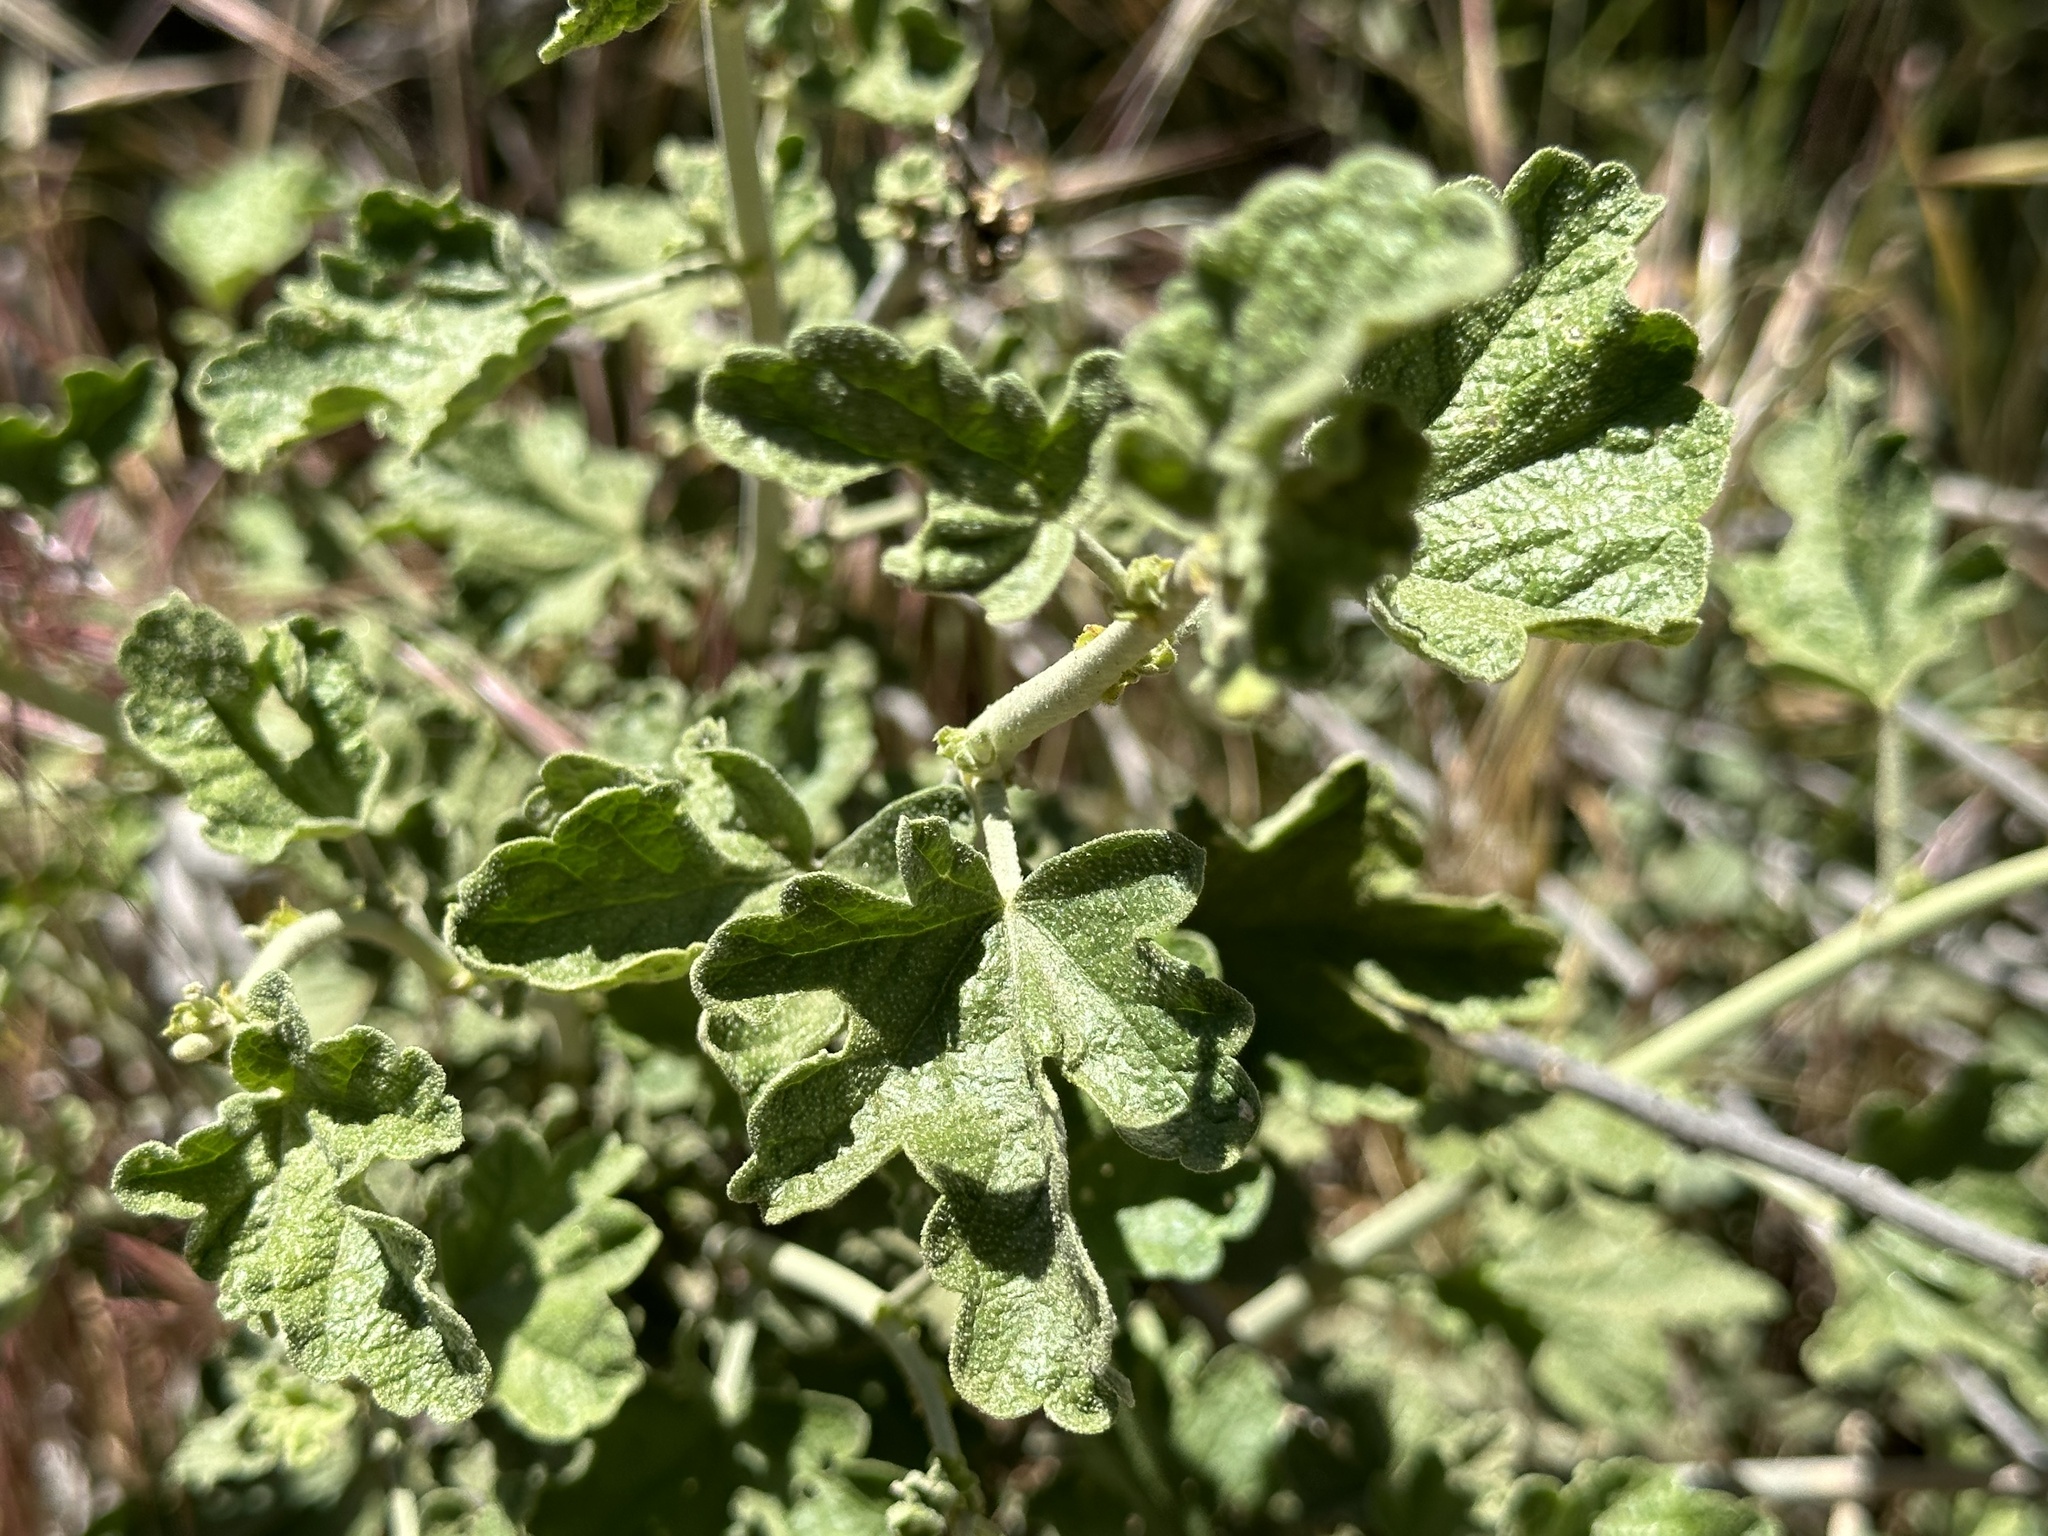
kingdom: Plantae
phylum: Tracheophyta
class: Magnoliopsida
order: Malvales
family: Malvaceae
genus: Malacothamnus
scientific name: Malacothamnus enigmaticus
